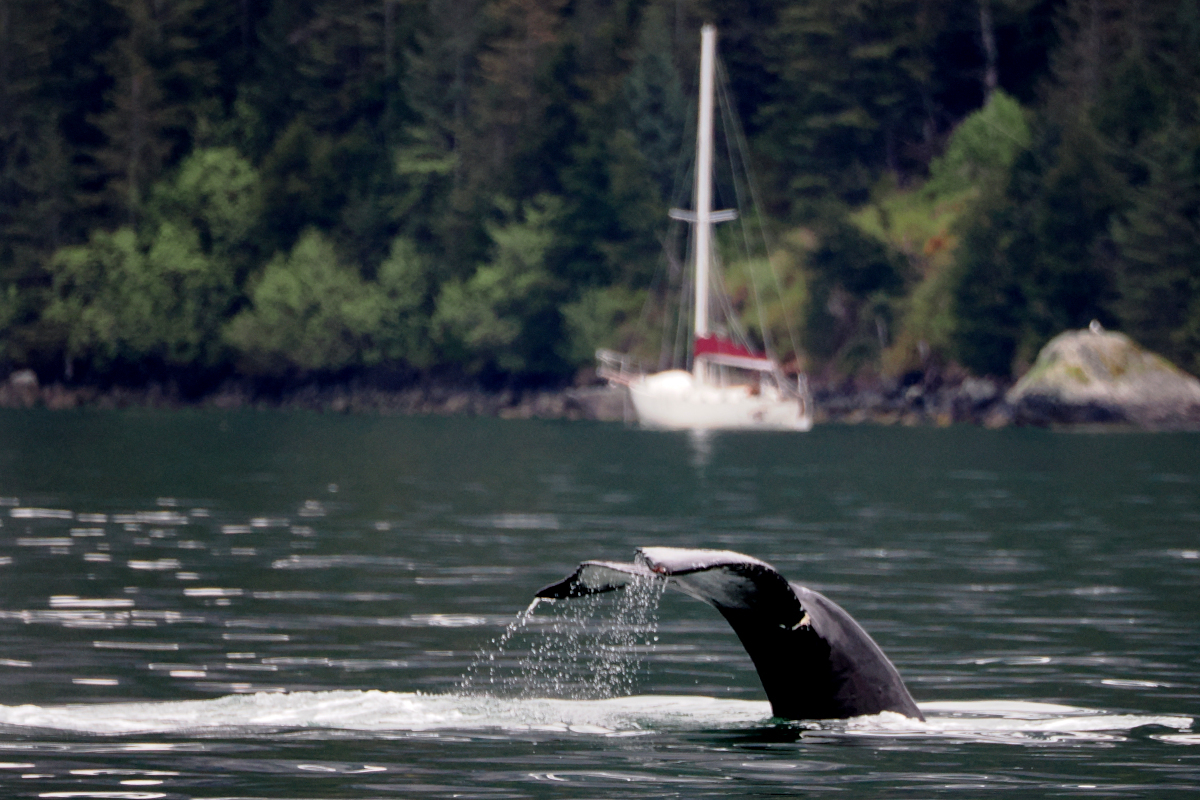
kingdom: Animalia
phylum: Chordata
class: Mammalia
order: Cetacea
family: Balaenopteridae
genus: Megaptera
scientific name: Megaptera novaeangliae
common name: Humpback whale
